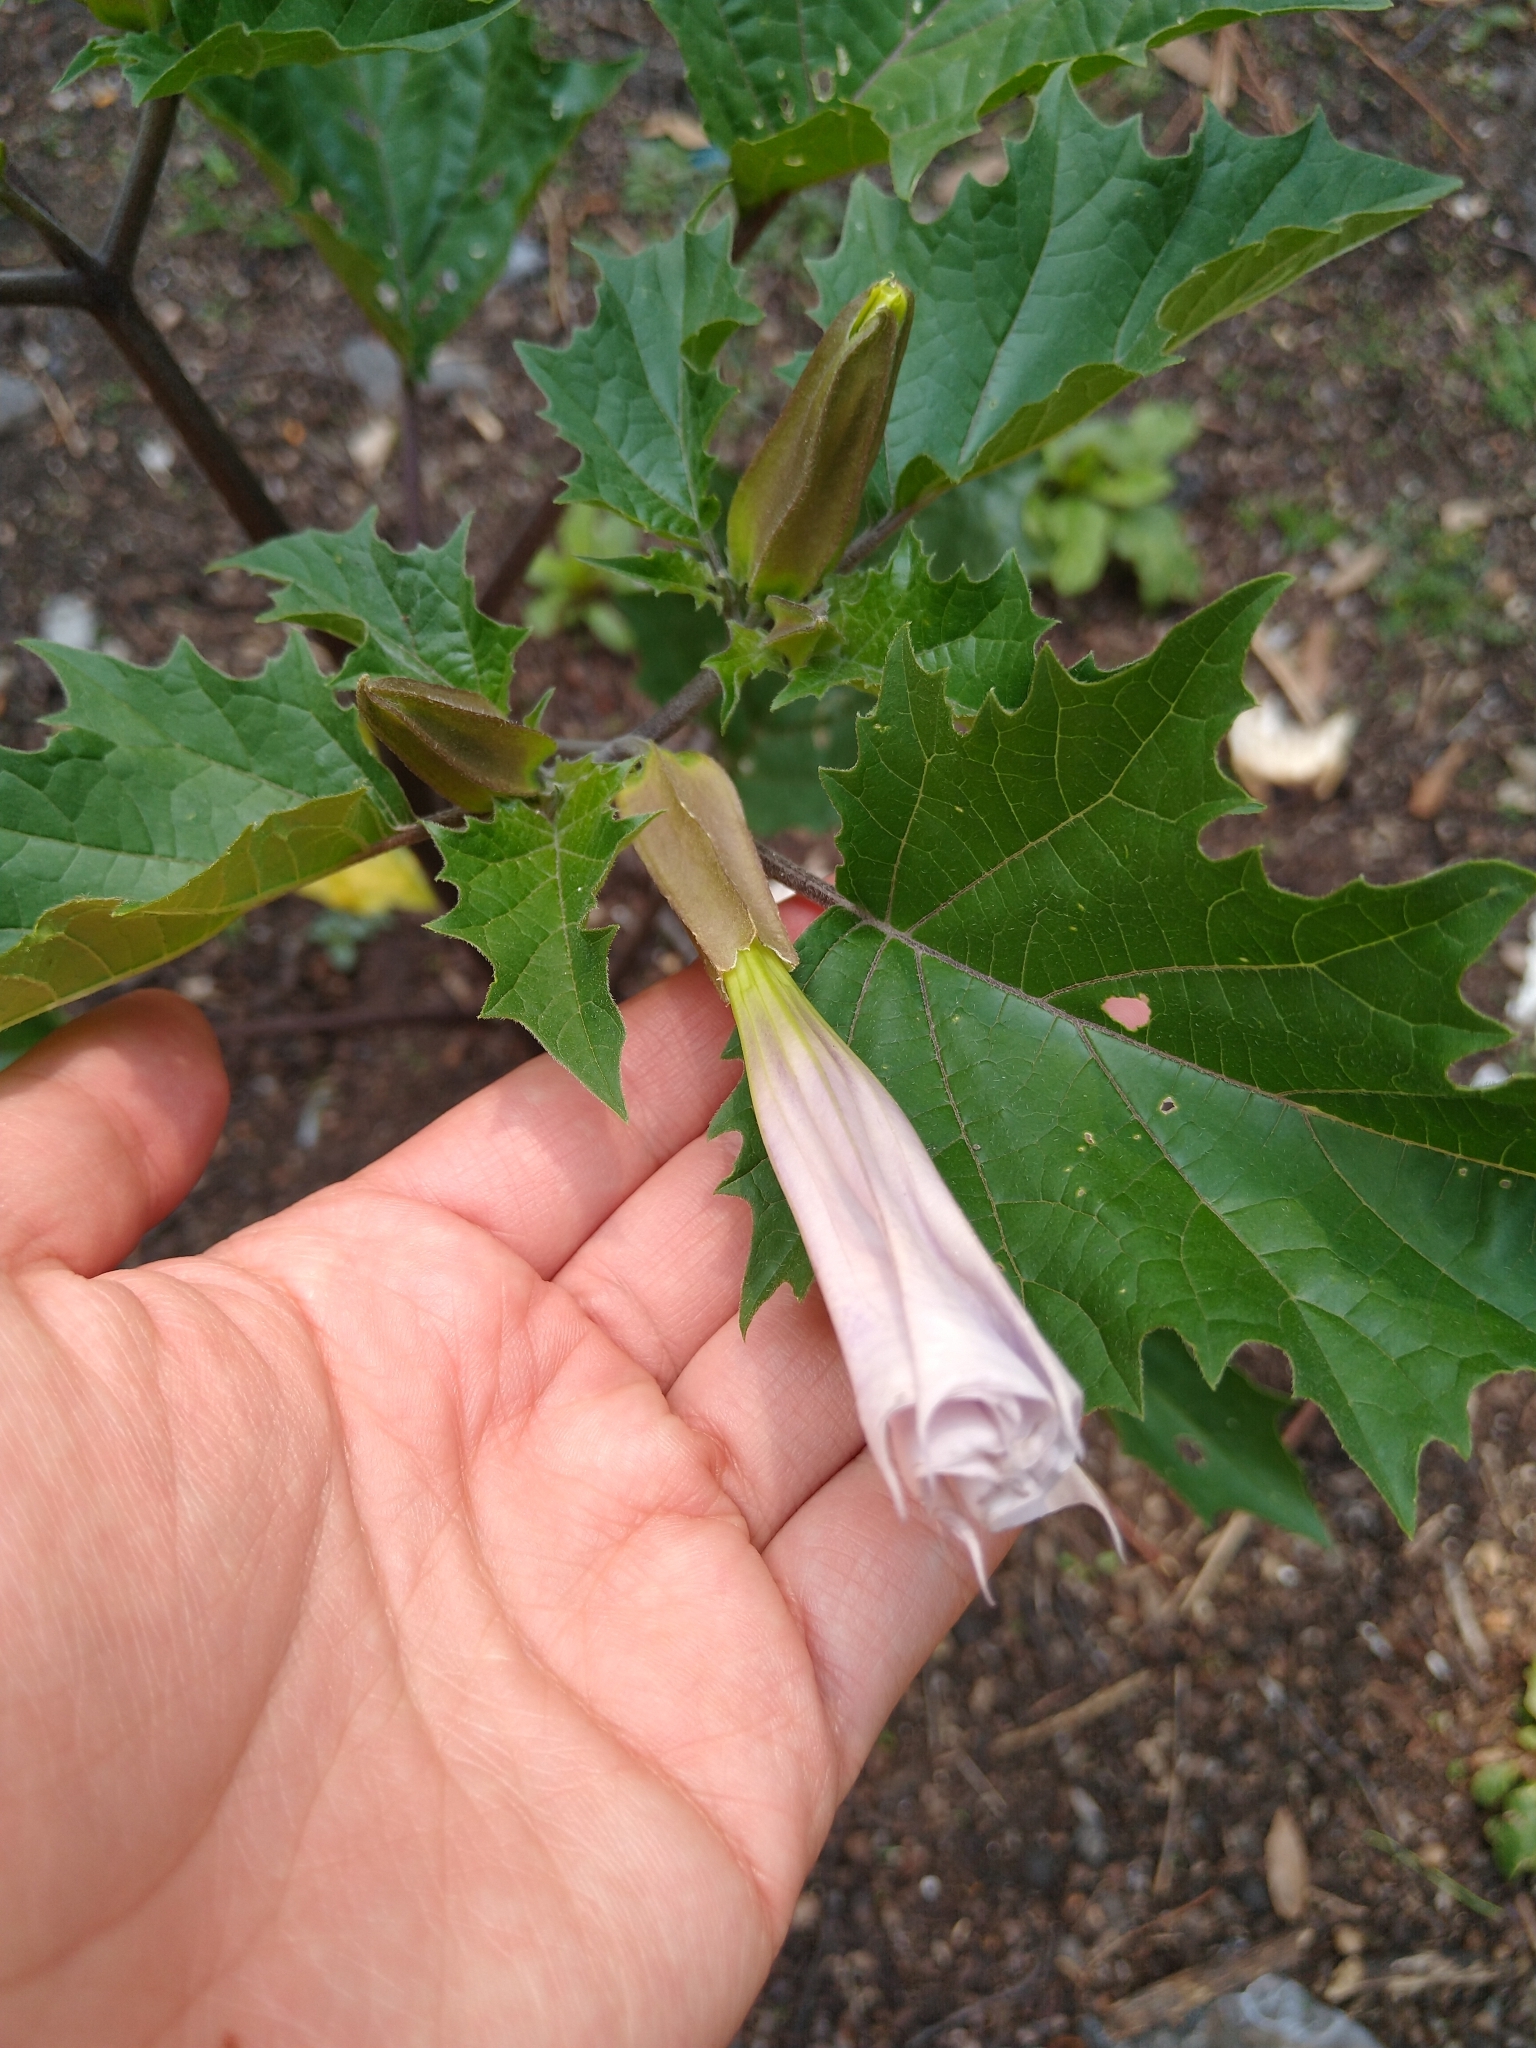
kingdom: Plantae
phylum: Tracheophyta
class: Magnoliopsida
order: Solanales
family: Solanaceae
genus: Datura
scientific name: Datura stramonium
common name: Thorn-apple
